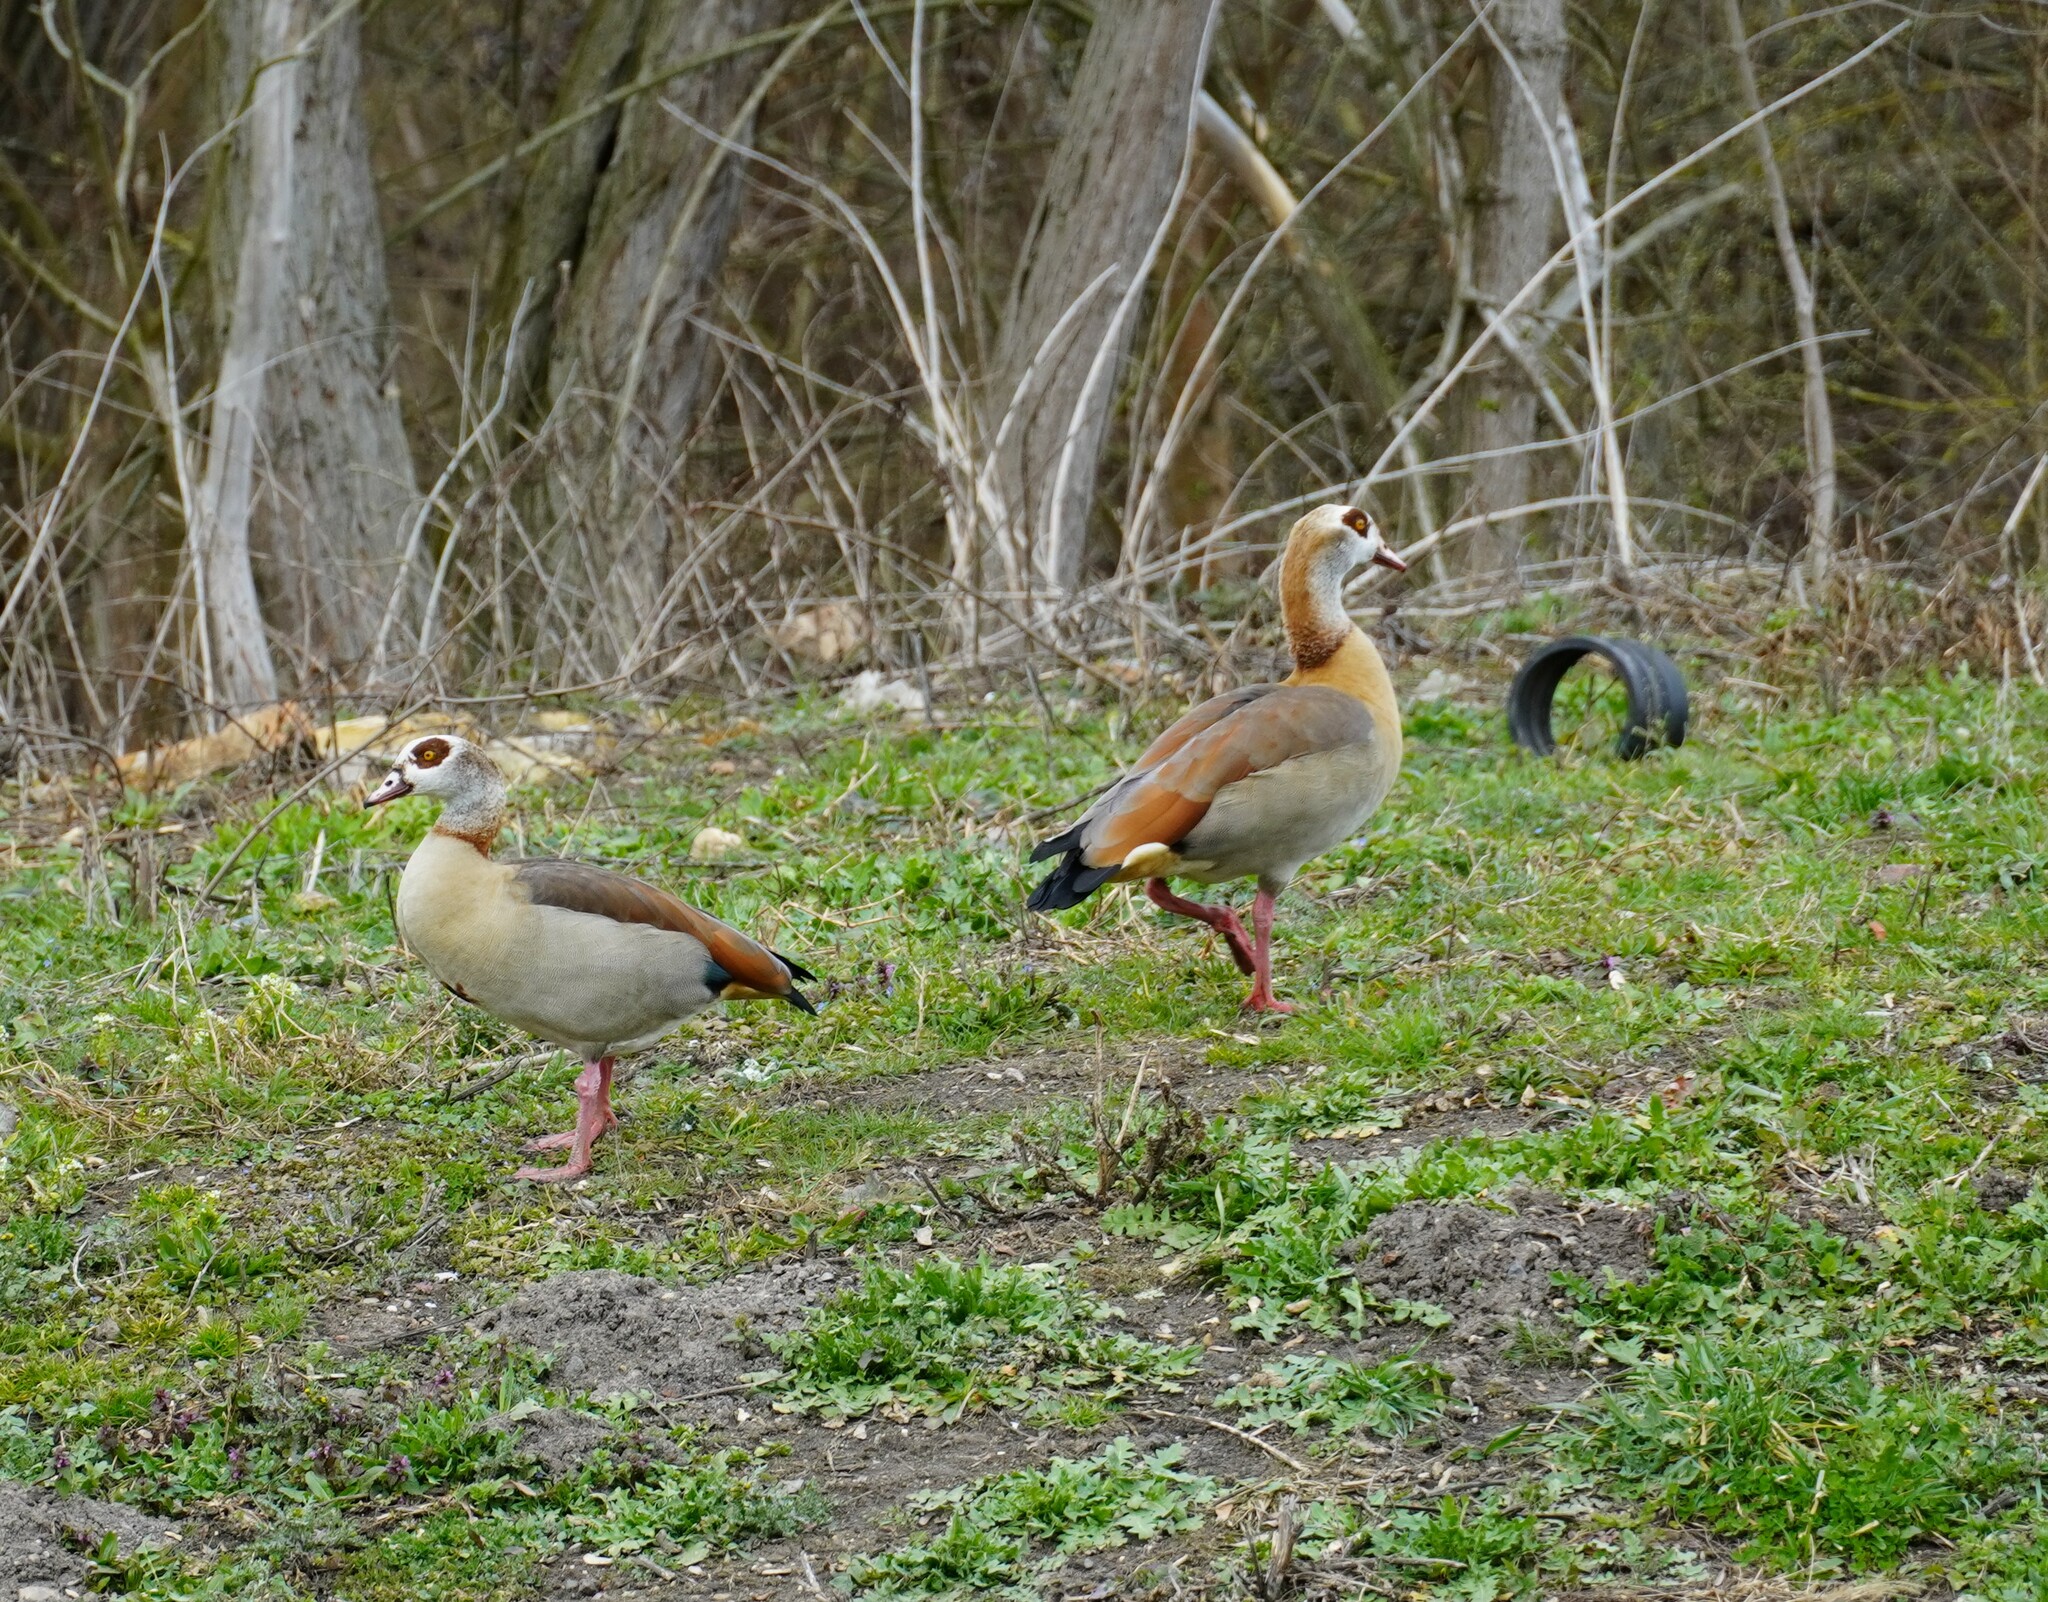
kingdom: Animalia
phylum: Chordata
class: Aves
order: Anseriformes
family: Anatidae
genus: Alopochen
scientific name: Alopochen aegyptiaca
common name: Egyptian goose
